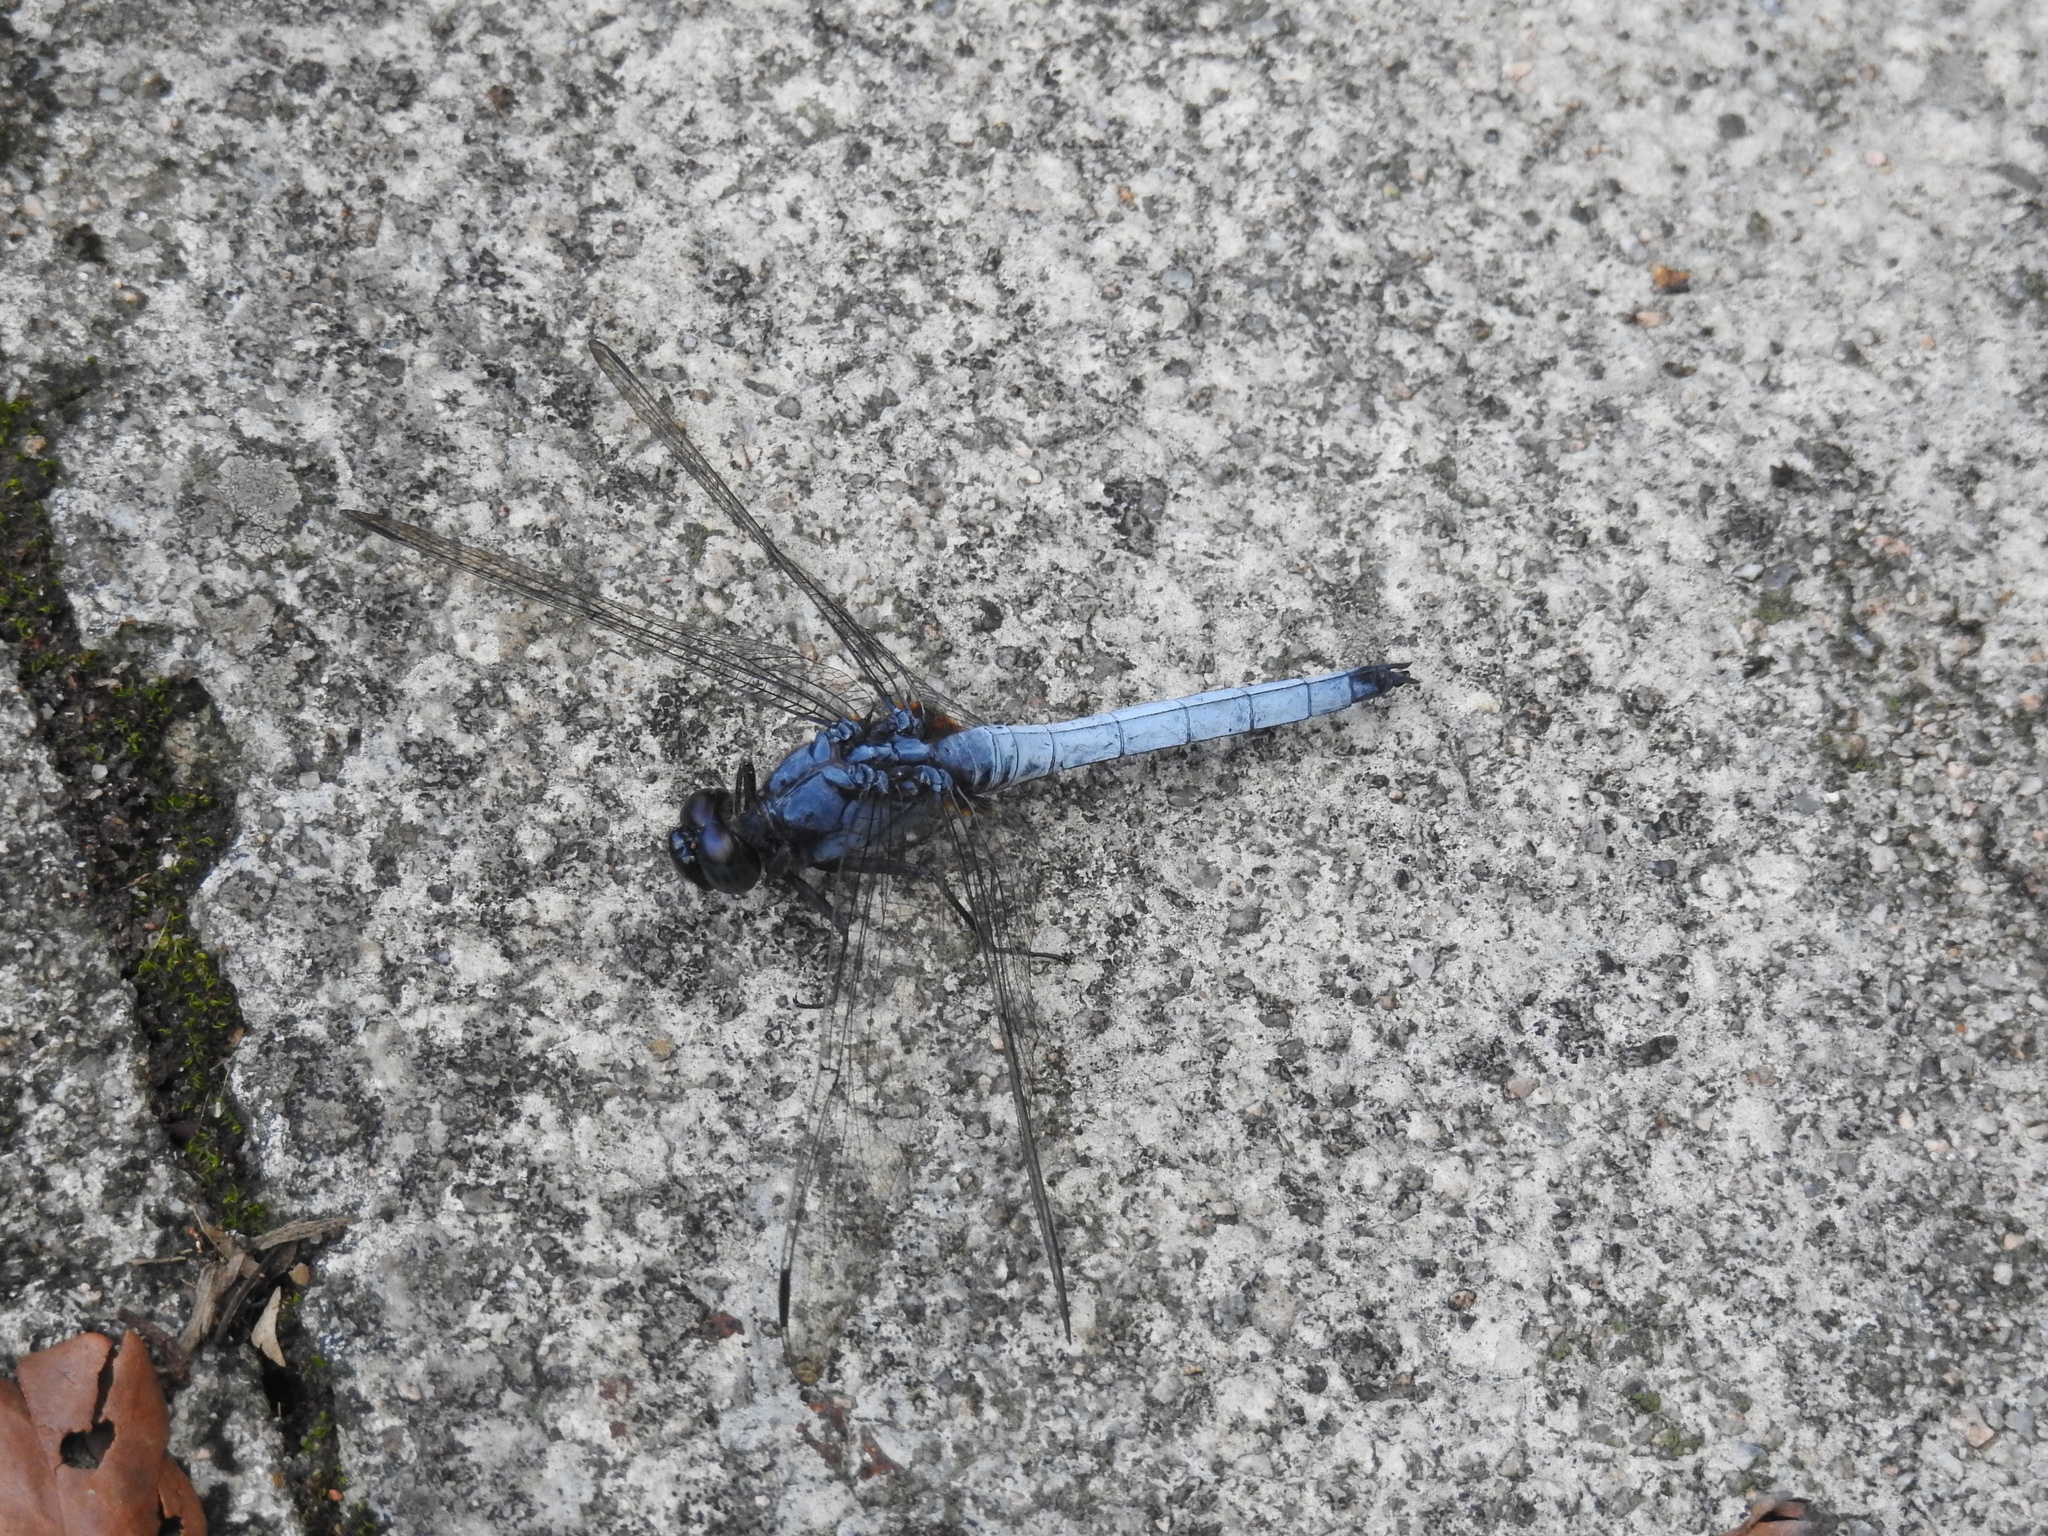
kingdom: Animalia
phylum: Arthropoda
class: Insecta
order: Odonata
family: Libellulidae
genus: Orthetrum
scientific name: Orthetrum glaucum
